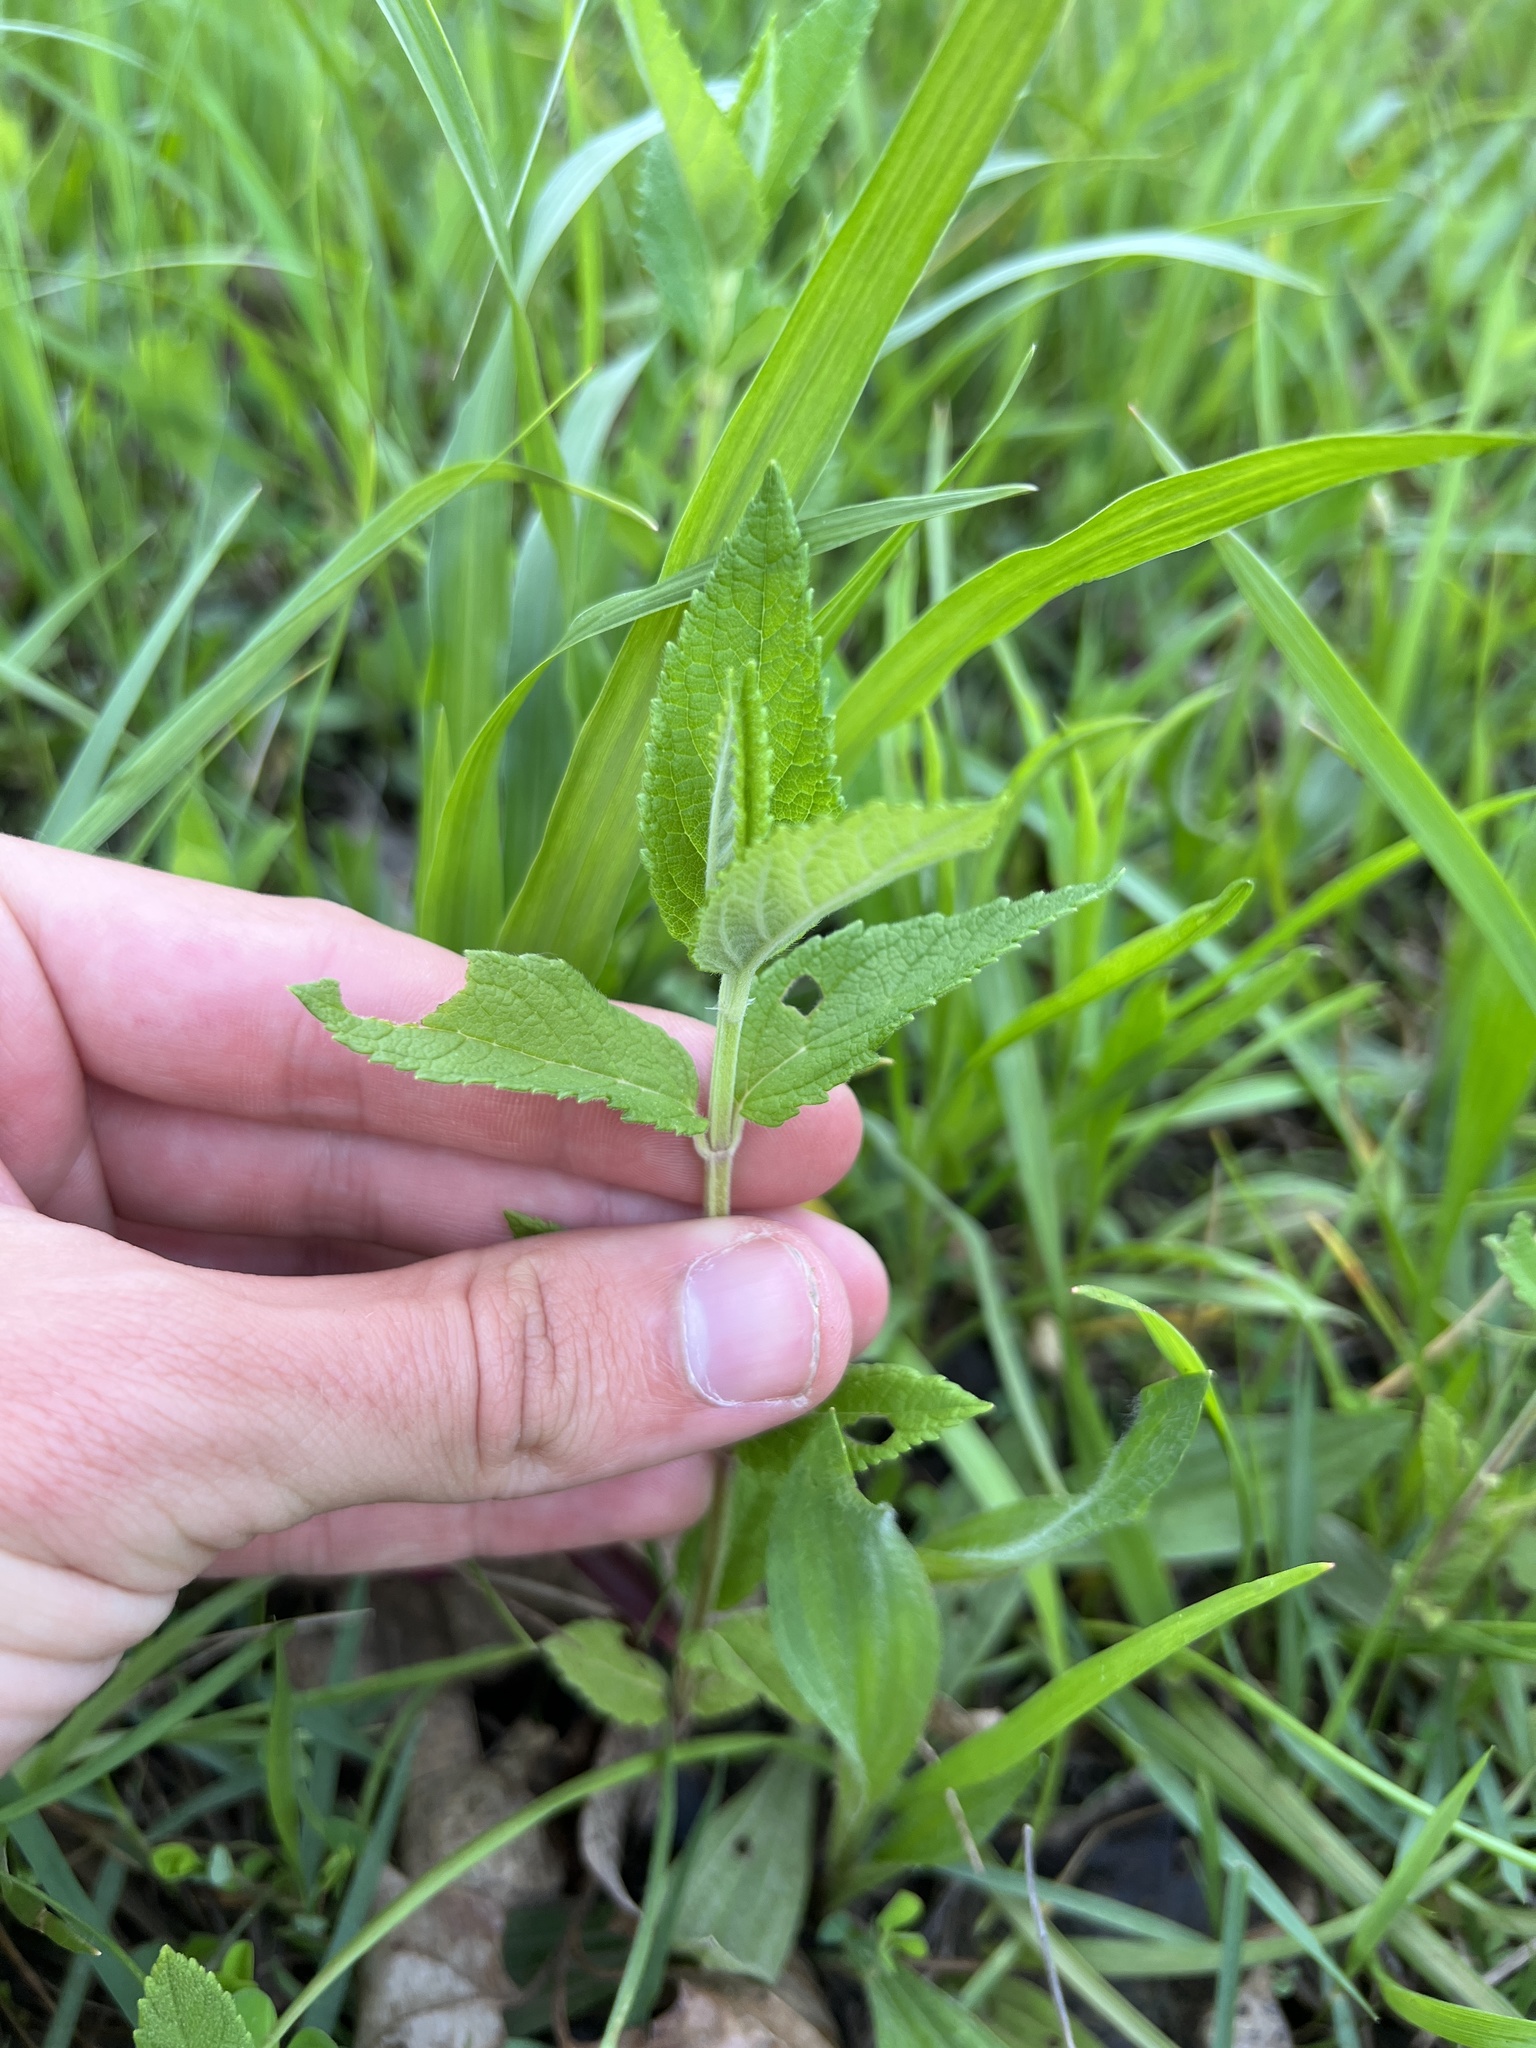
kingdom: Plantae
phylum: Tracheophyta
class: Magnoliopsida
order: Lamiales
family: Lamiaceae
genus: Teucrium
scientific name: Teucrium canadense
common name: American germander
